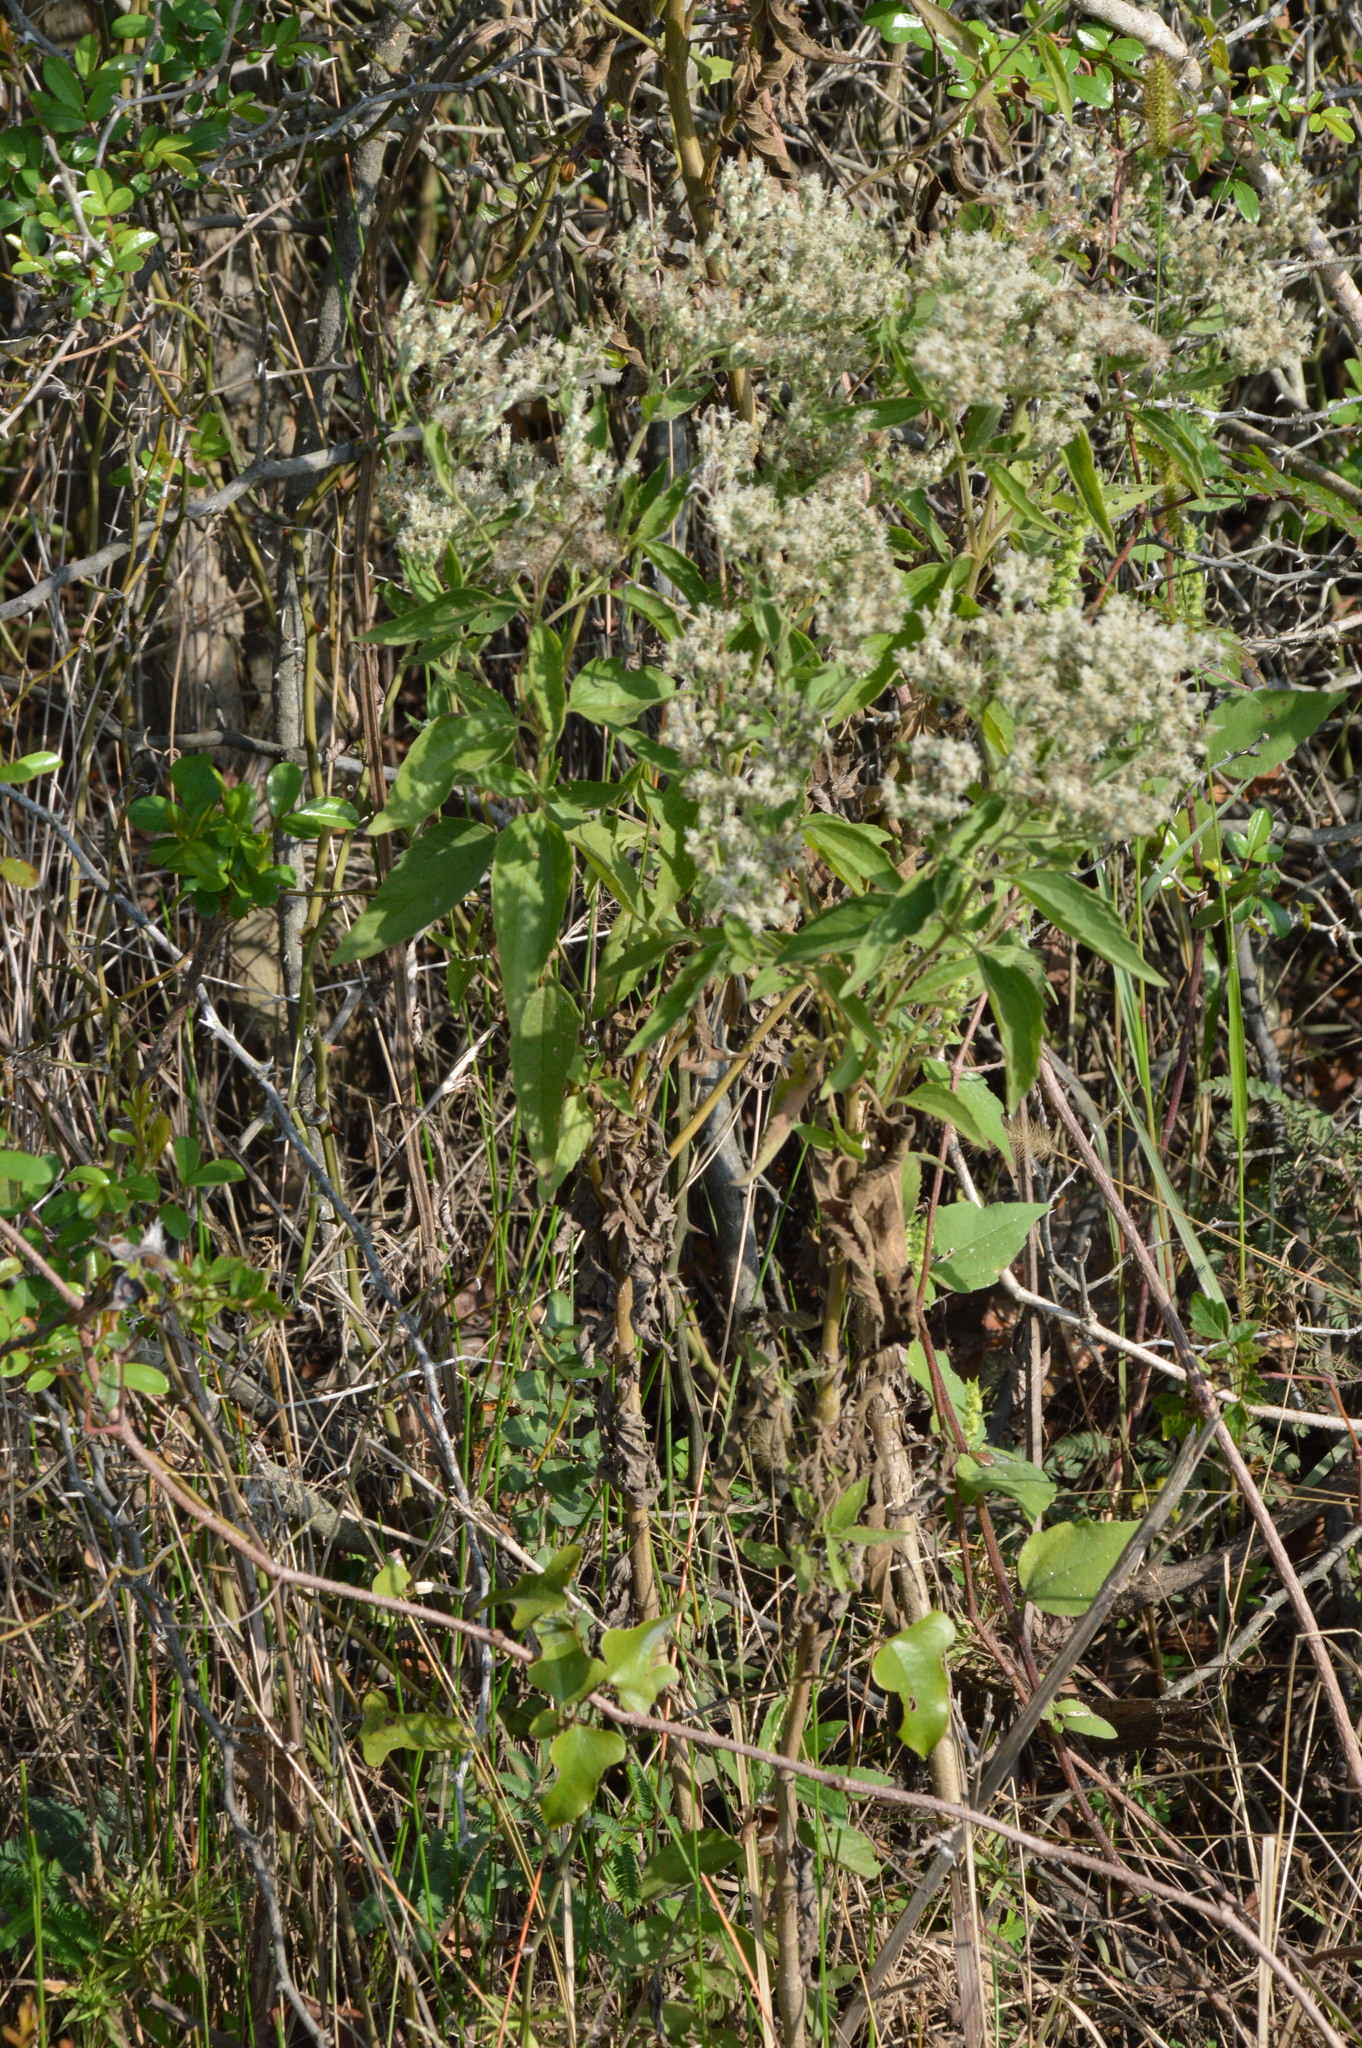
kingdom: Plantae
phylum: Tracheophyta
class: Magnoliopsida
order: Asterales
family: Asteraceae
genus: Eupatorium
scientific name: Eupatorium serotinum
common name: Late boneset
